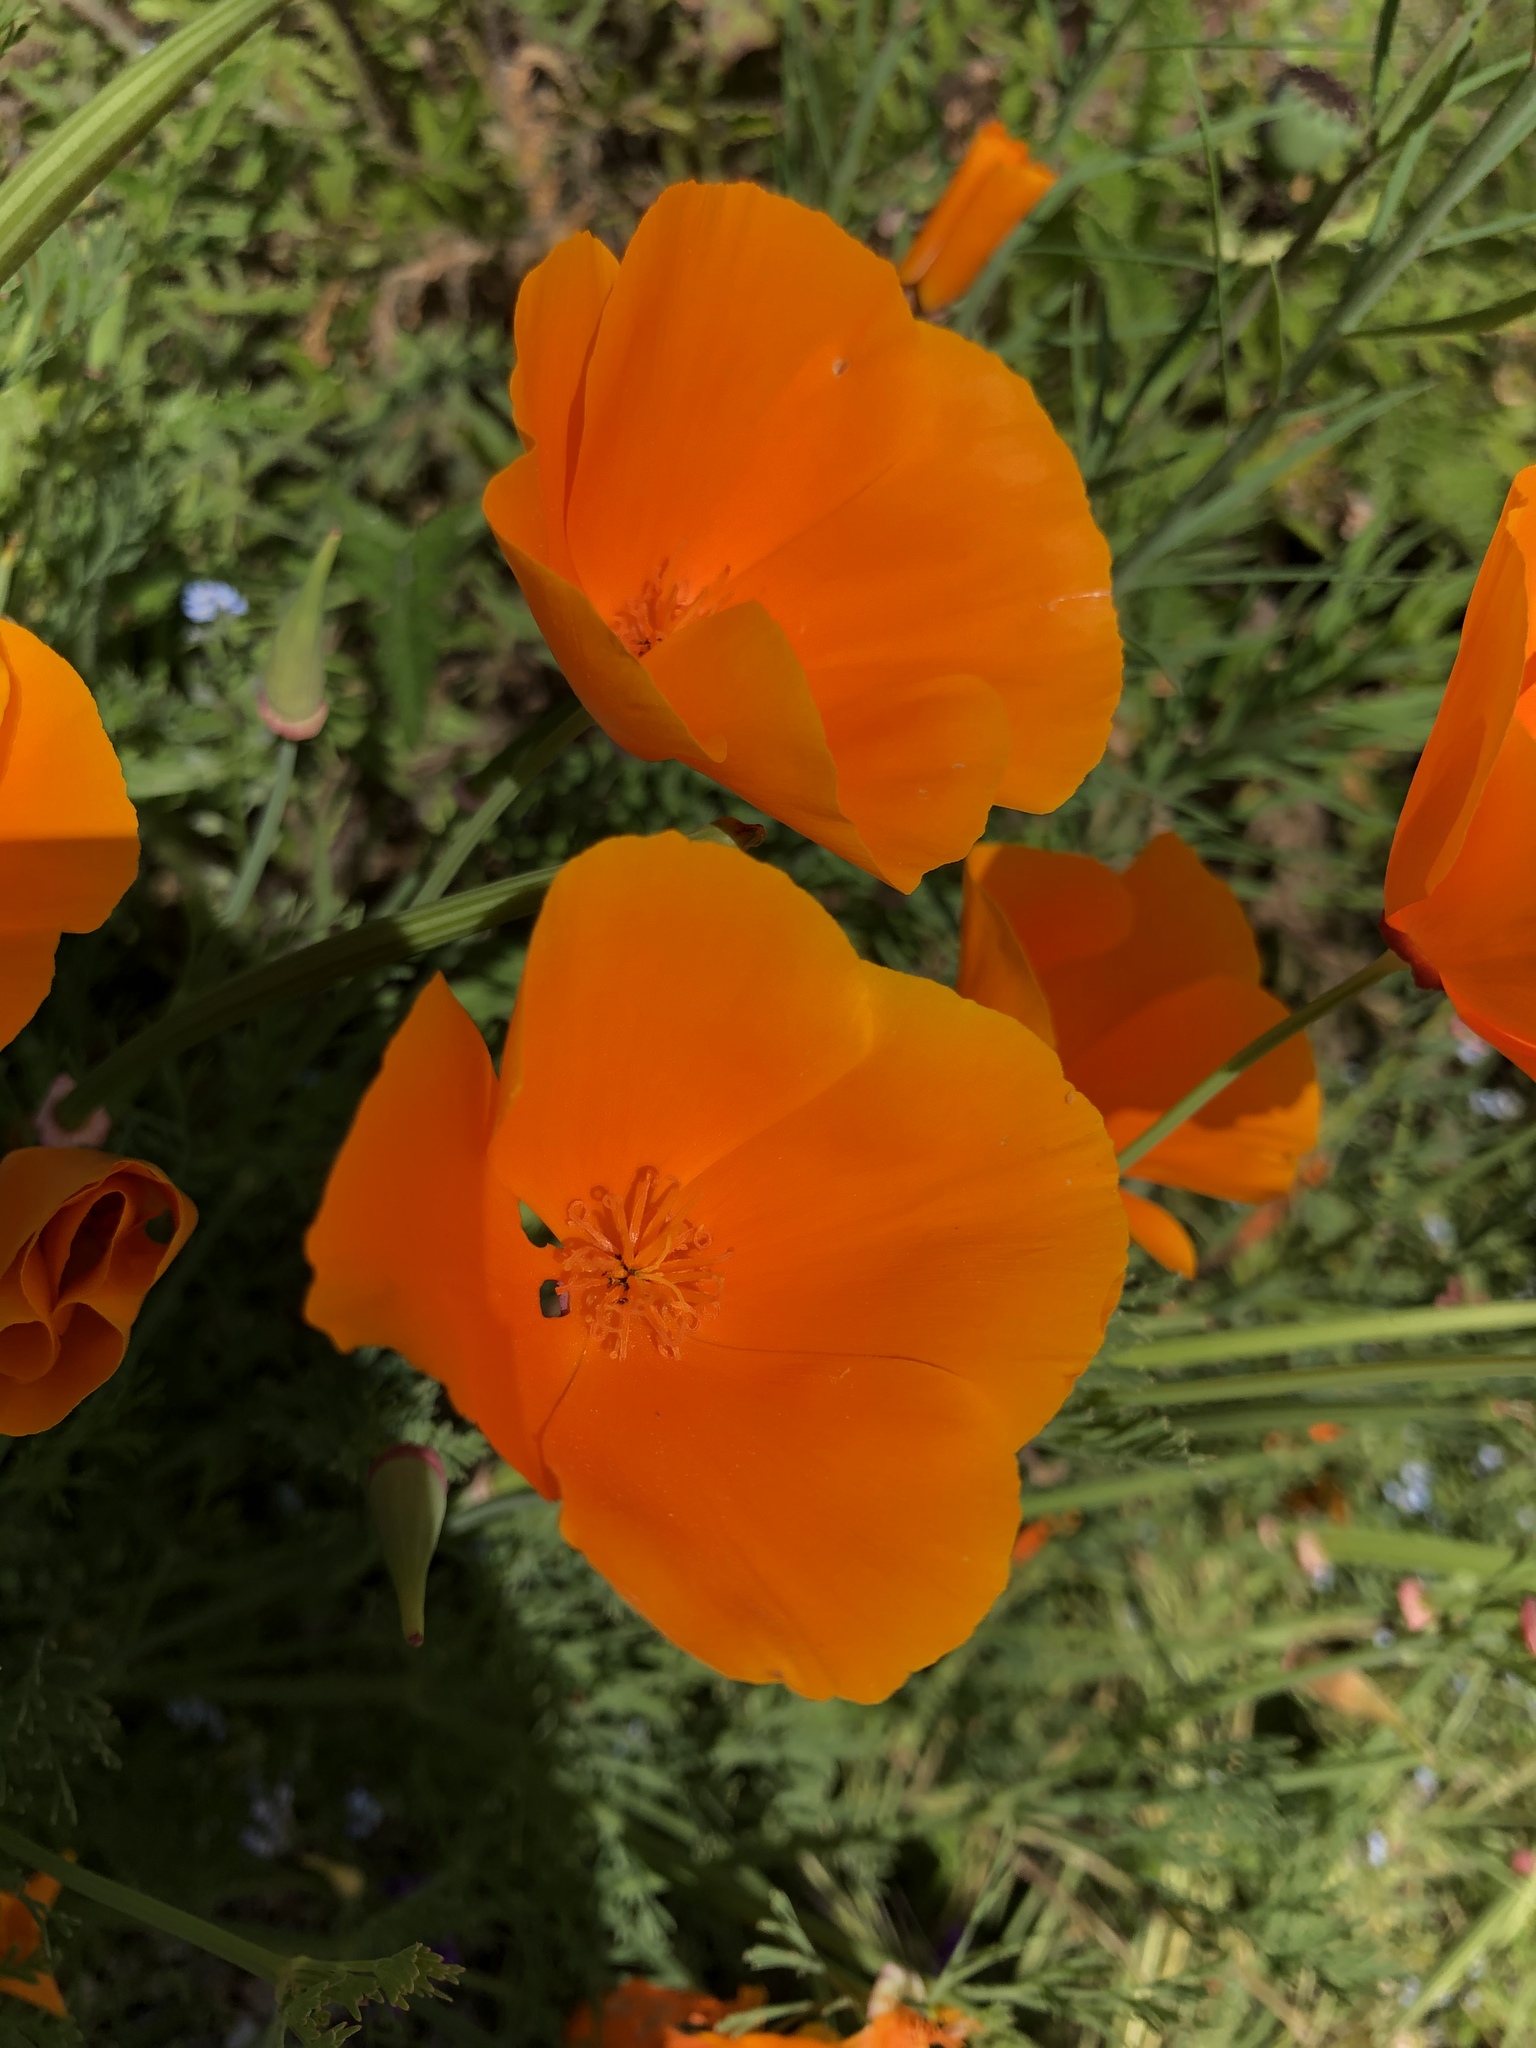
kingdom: Plantae
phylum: Tracheophyta
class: Magnoliopsida
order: Ranunculales
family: Papaveraceae
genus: Eschscholzia
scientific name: Eschscholzia californica
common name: California poppy
